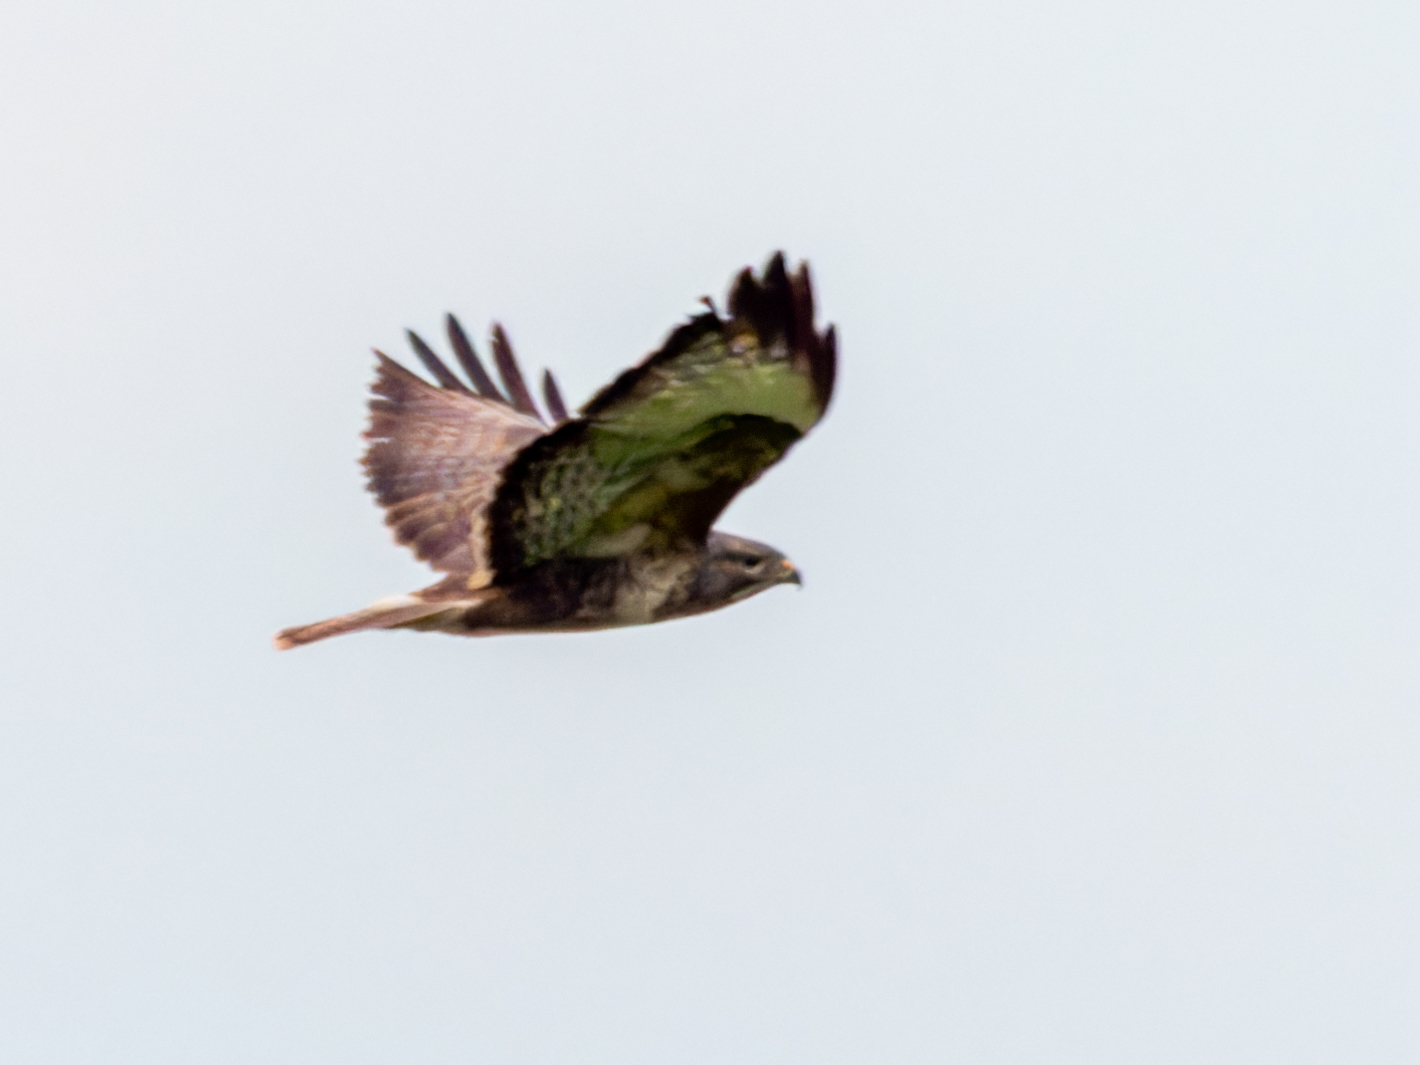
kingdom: Animalia
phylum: Chordata
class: Aves
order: Accipitriformes
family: Accipitridae
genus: Buteo
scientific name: Buteo buteo
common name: Common buzzard
